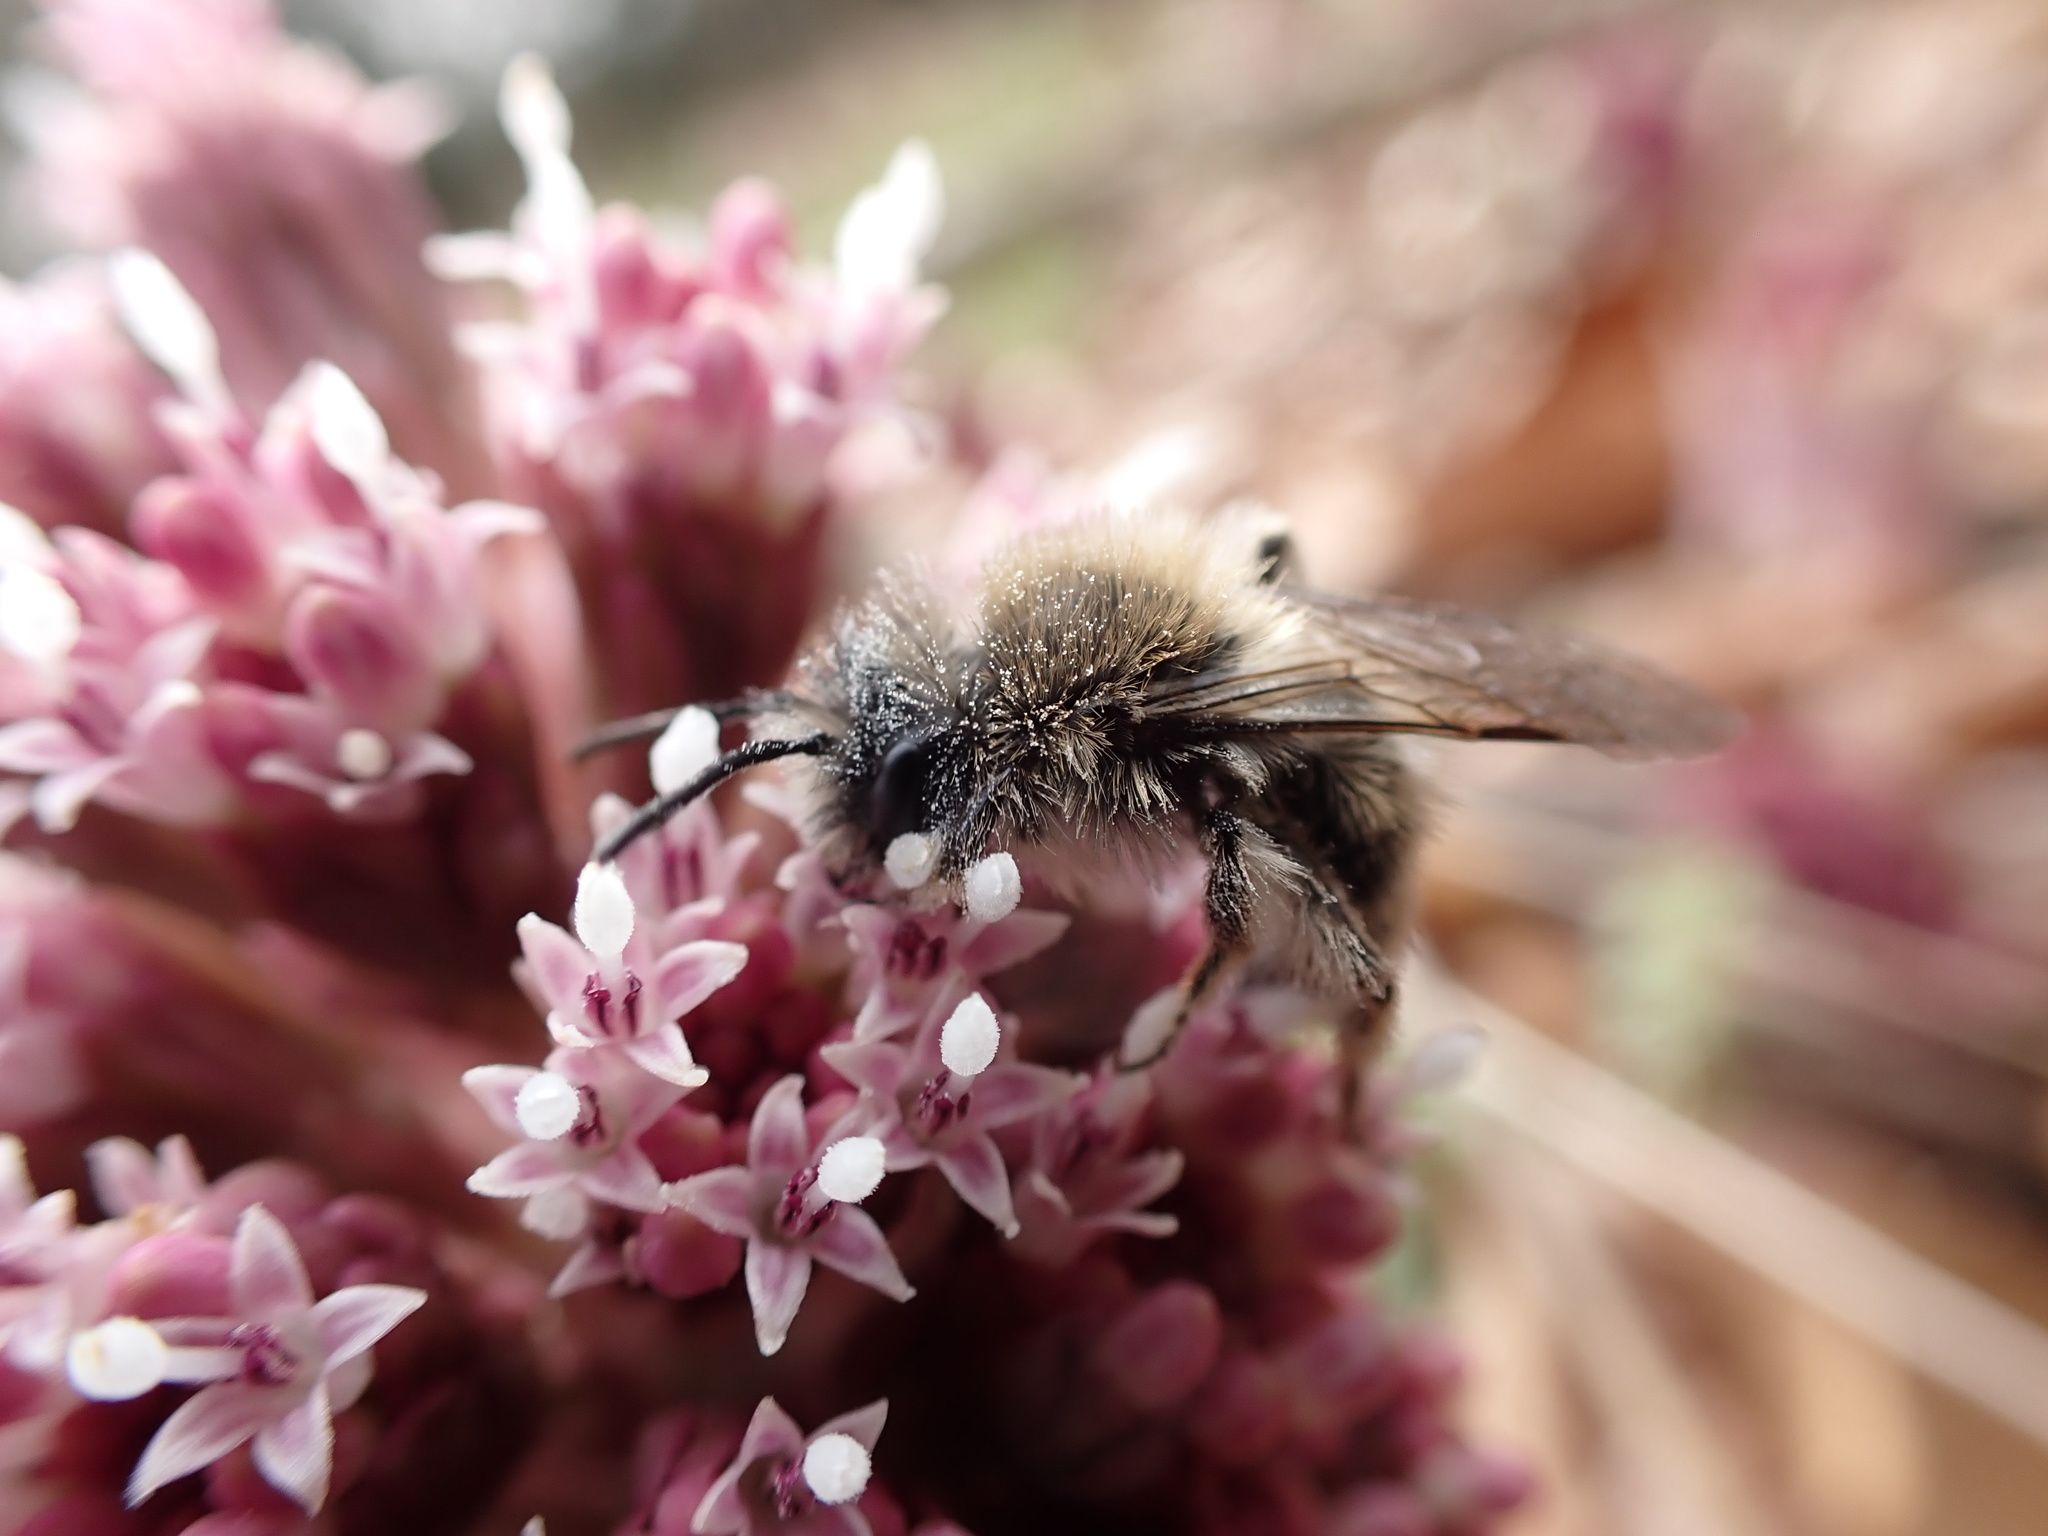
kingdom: Plantae
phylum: Tracheophyta
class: Magnoliopsida
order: Asterales
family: Asteraceae
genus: Petasites
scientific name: Petasites hybridus
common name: Butterbur
